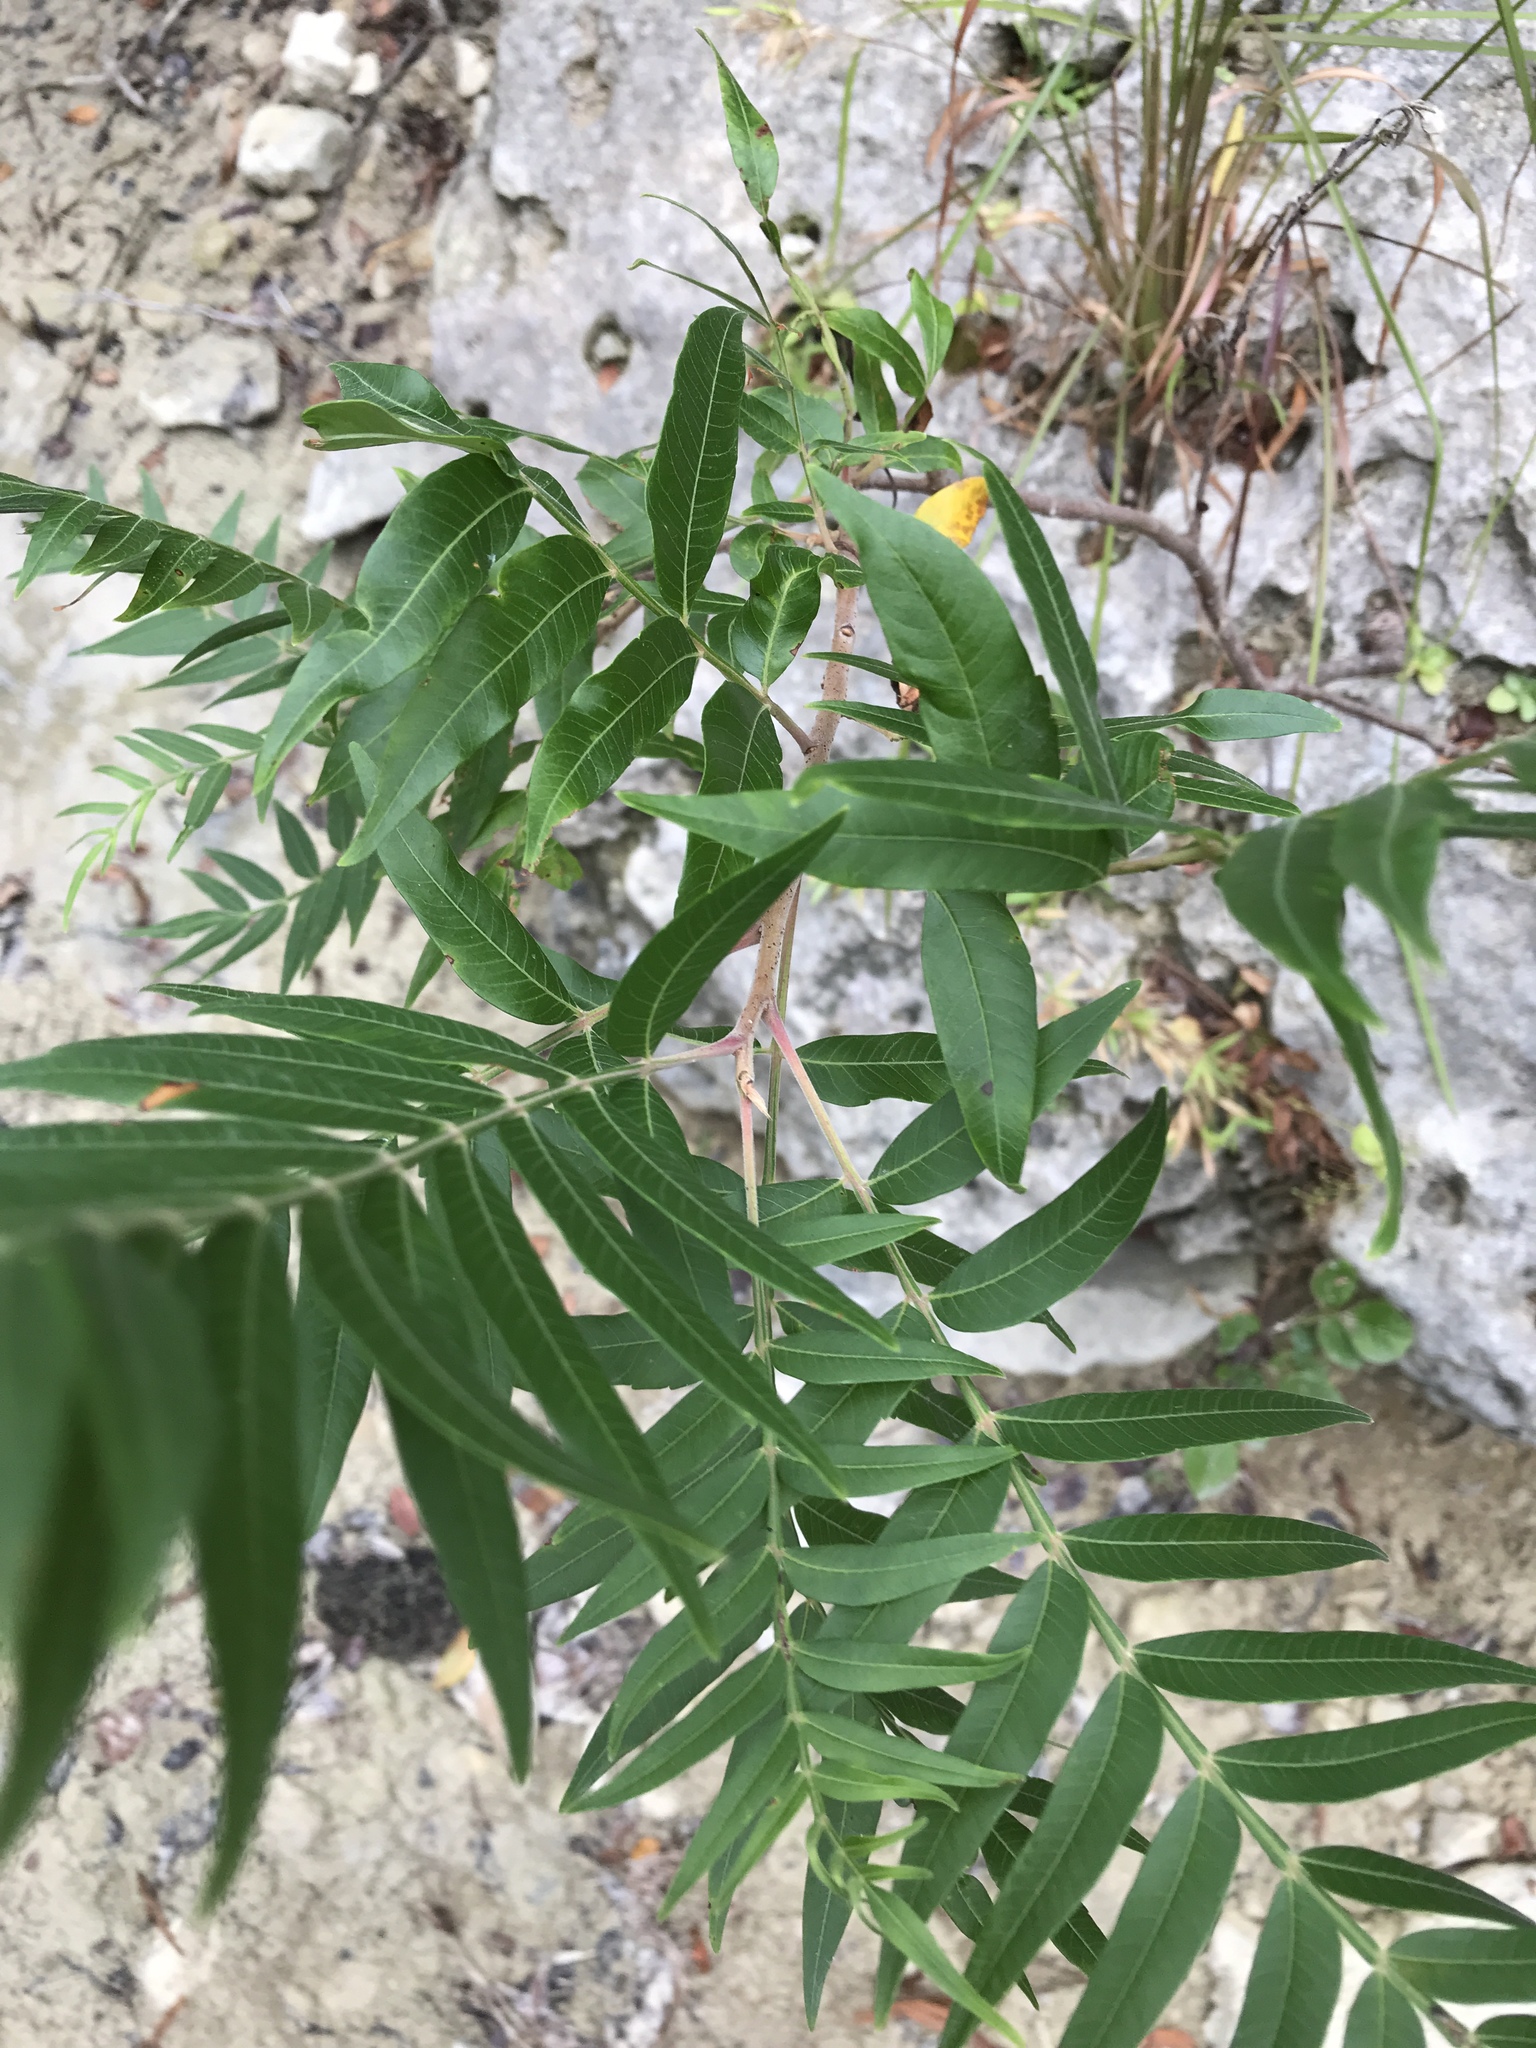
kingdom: Plantae
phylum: Tracheophyta
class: Magnoliopsida
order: Sapindales
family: Anacardiaceae
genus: Rhus
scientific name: Rhus lanceolata
